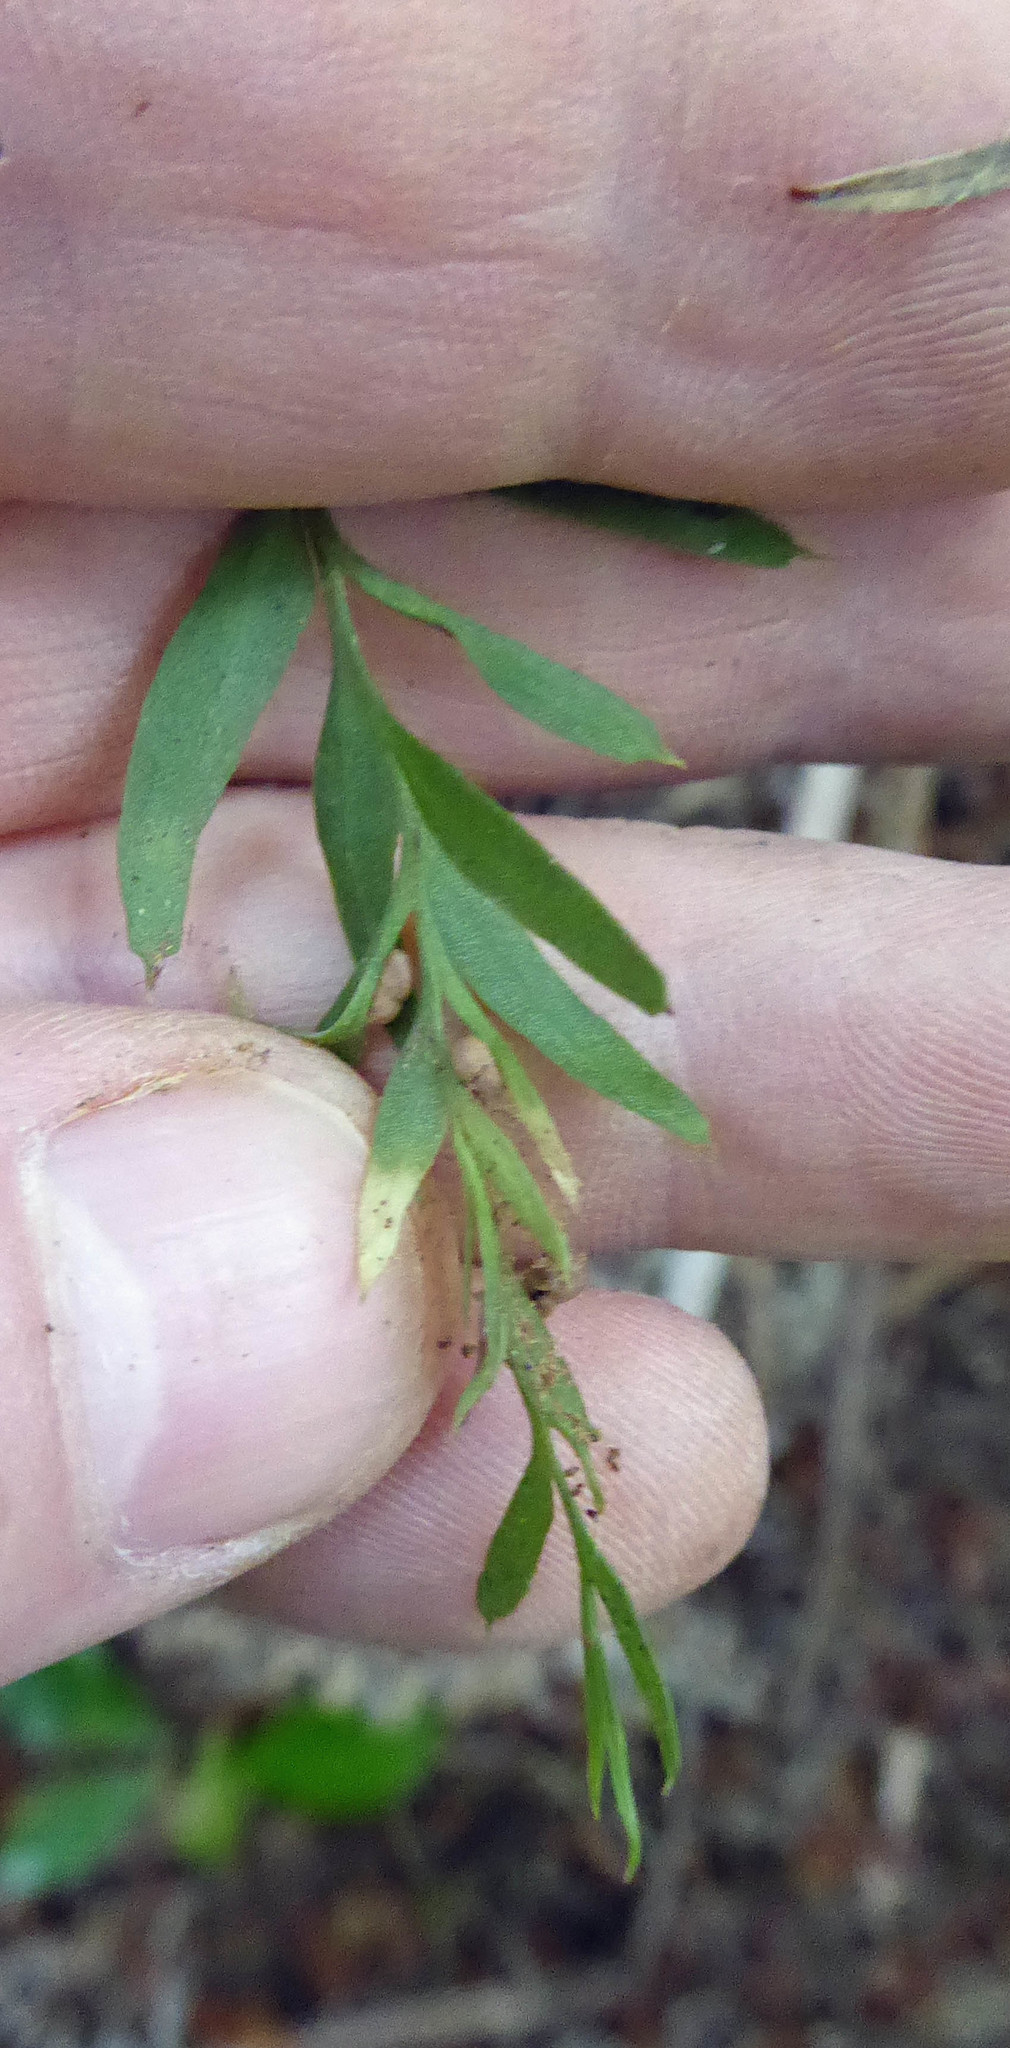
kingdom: Plantae
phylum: Tracheophyta
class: Polypodiopsida
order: Psilotales
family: Psilotaceae
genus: Tmesipteris
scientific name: Tmesipteris elongata
